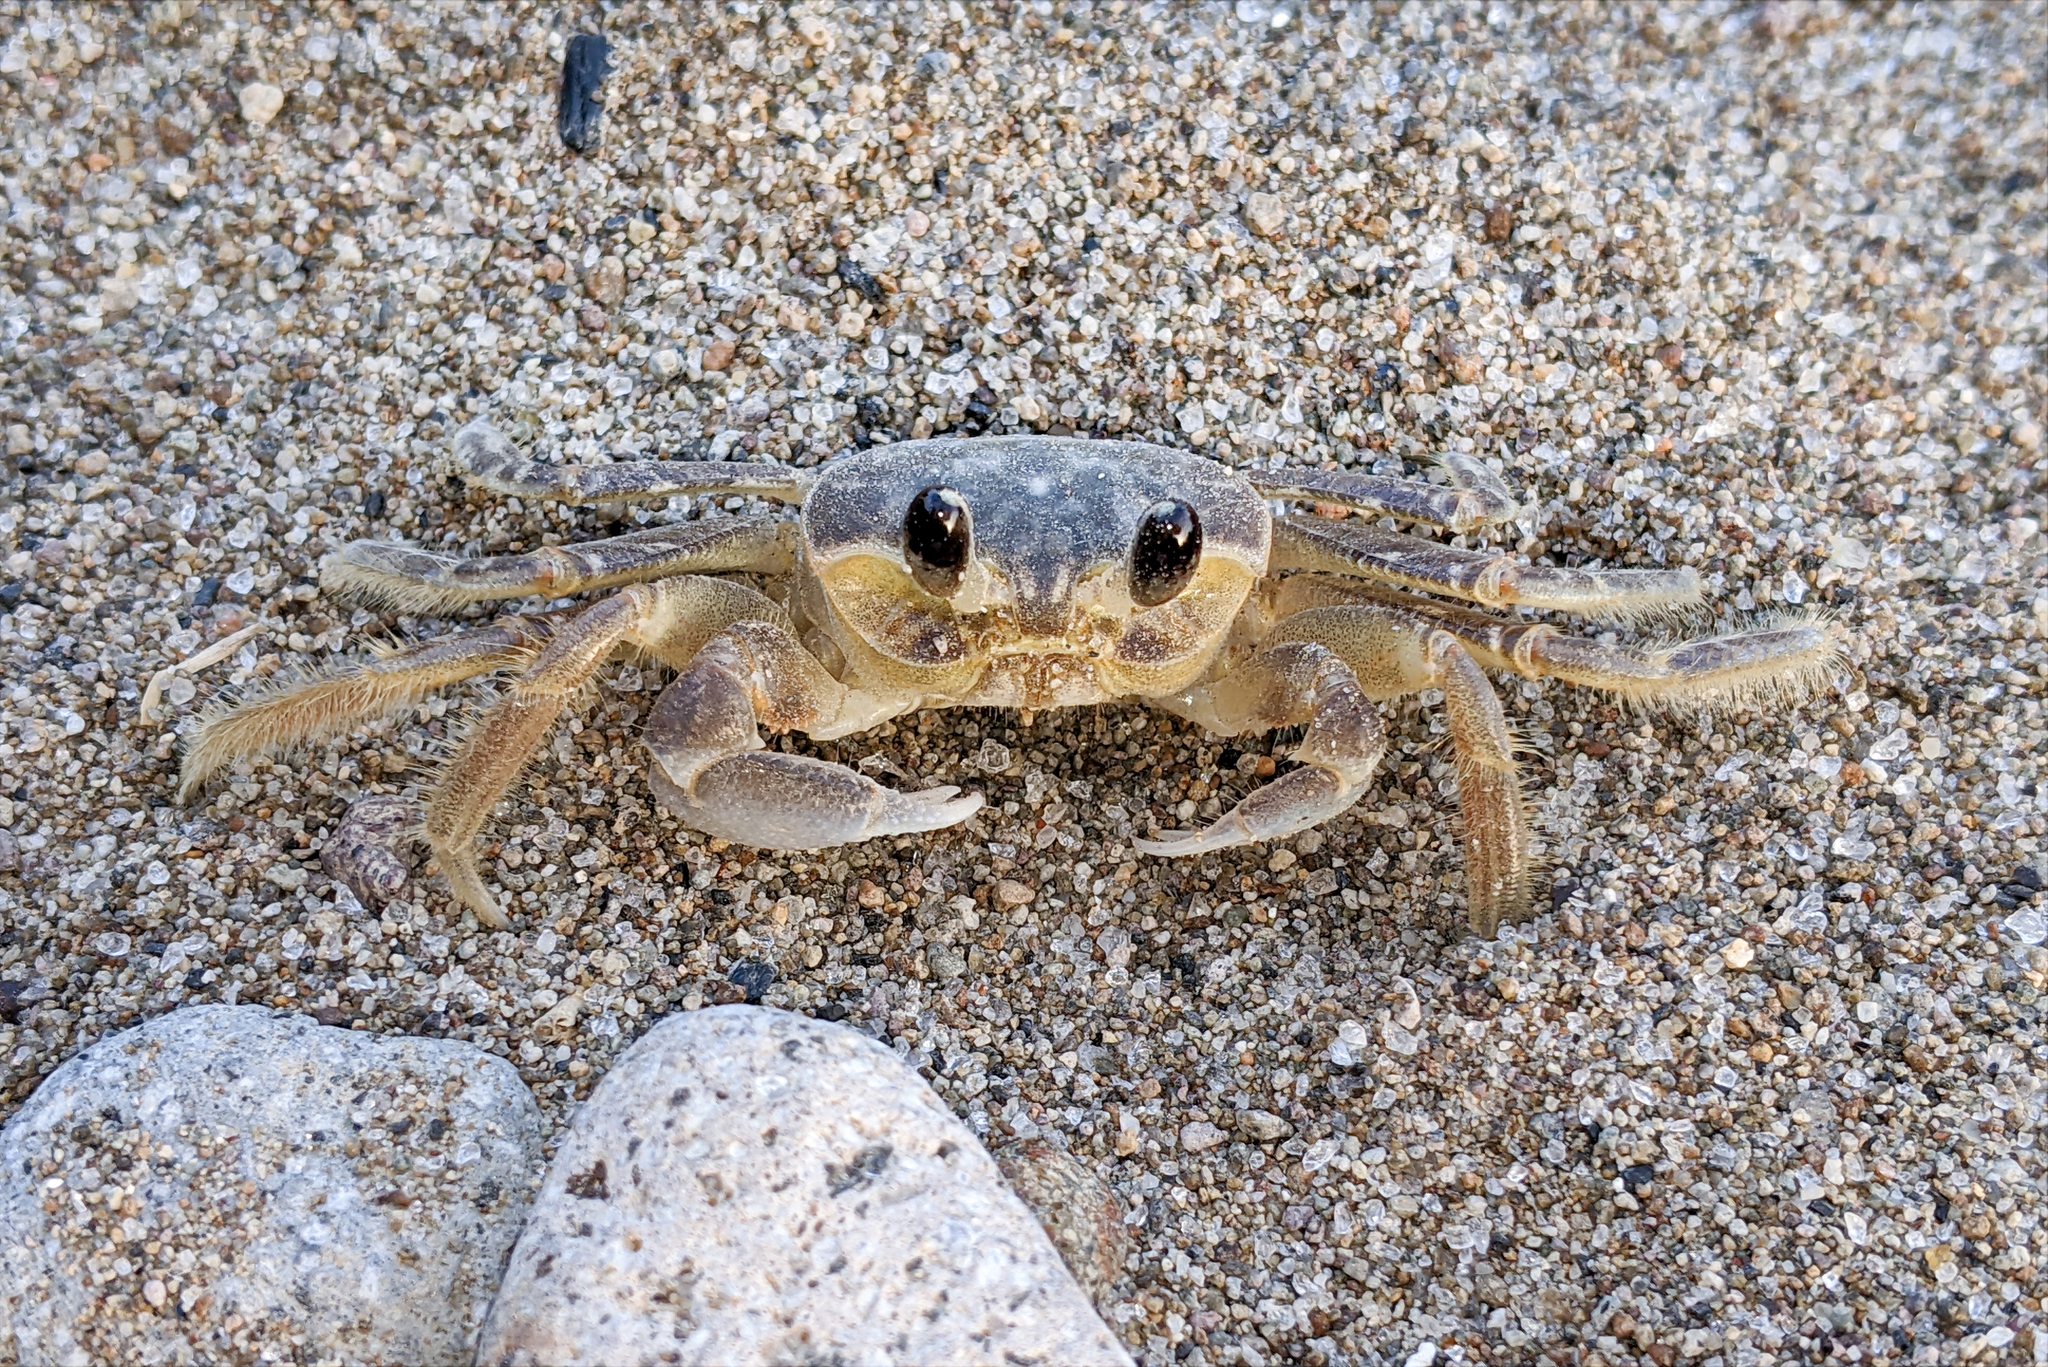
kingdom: Animalia
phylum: Arthropoda
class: Malacostraca
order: Decapoda
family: Ocypodidae
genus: Ocypode
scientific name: Ocypode quadrata
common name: Ghost crab
